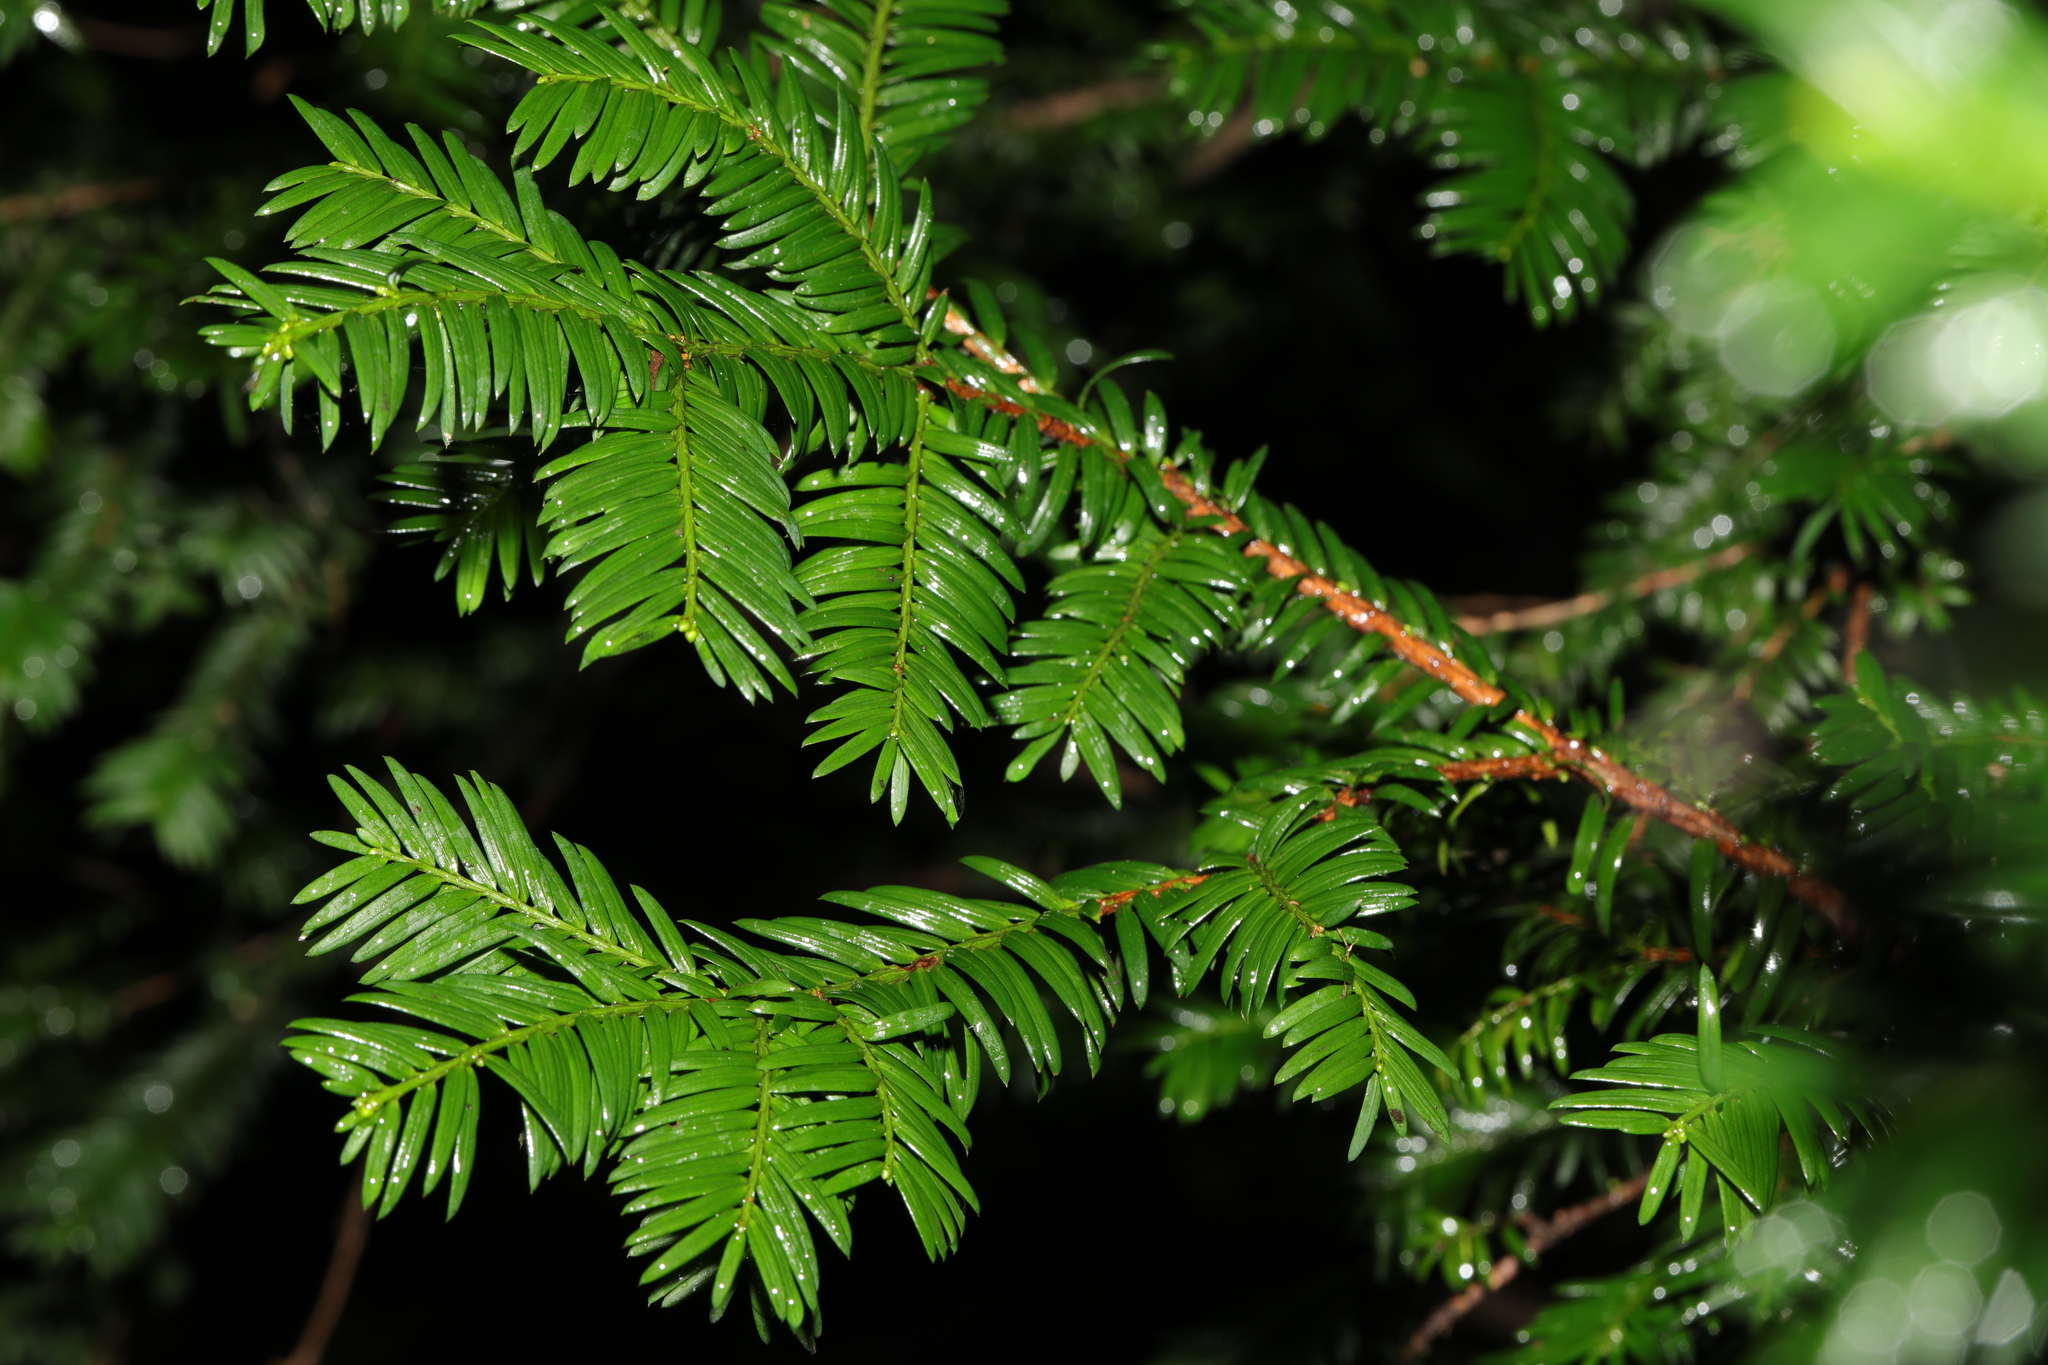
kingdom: Plantae
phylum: Tracheophyta
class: Pinopsida
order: Pinales
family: Taxaceae
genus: Taxus
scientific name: Taxus baccata
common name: Yew
